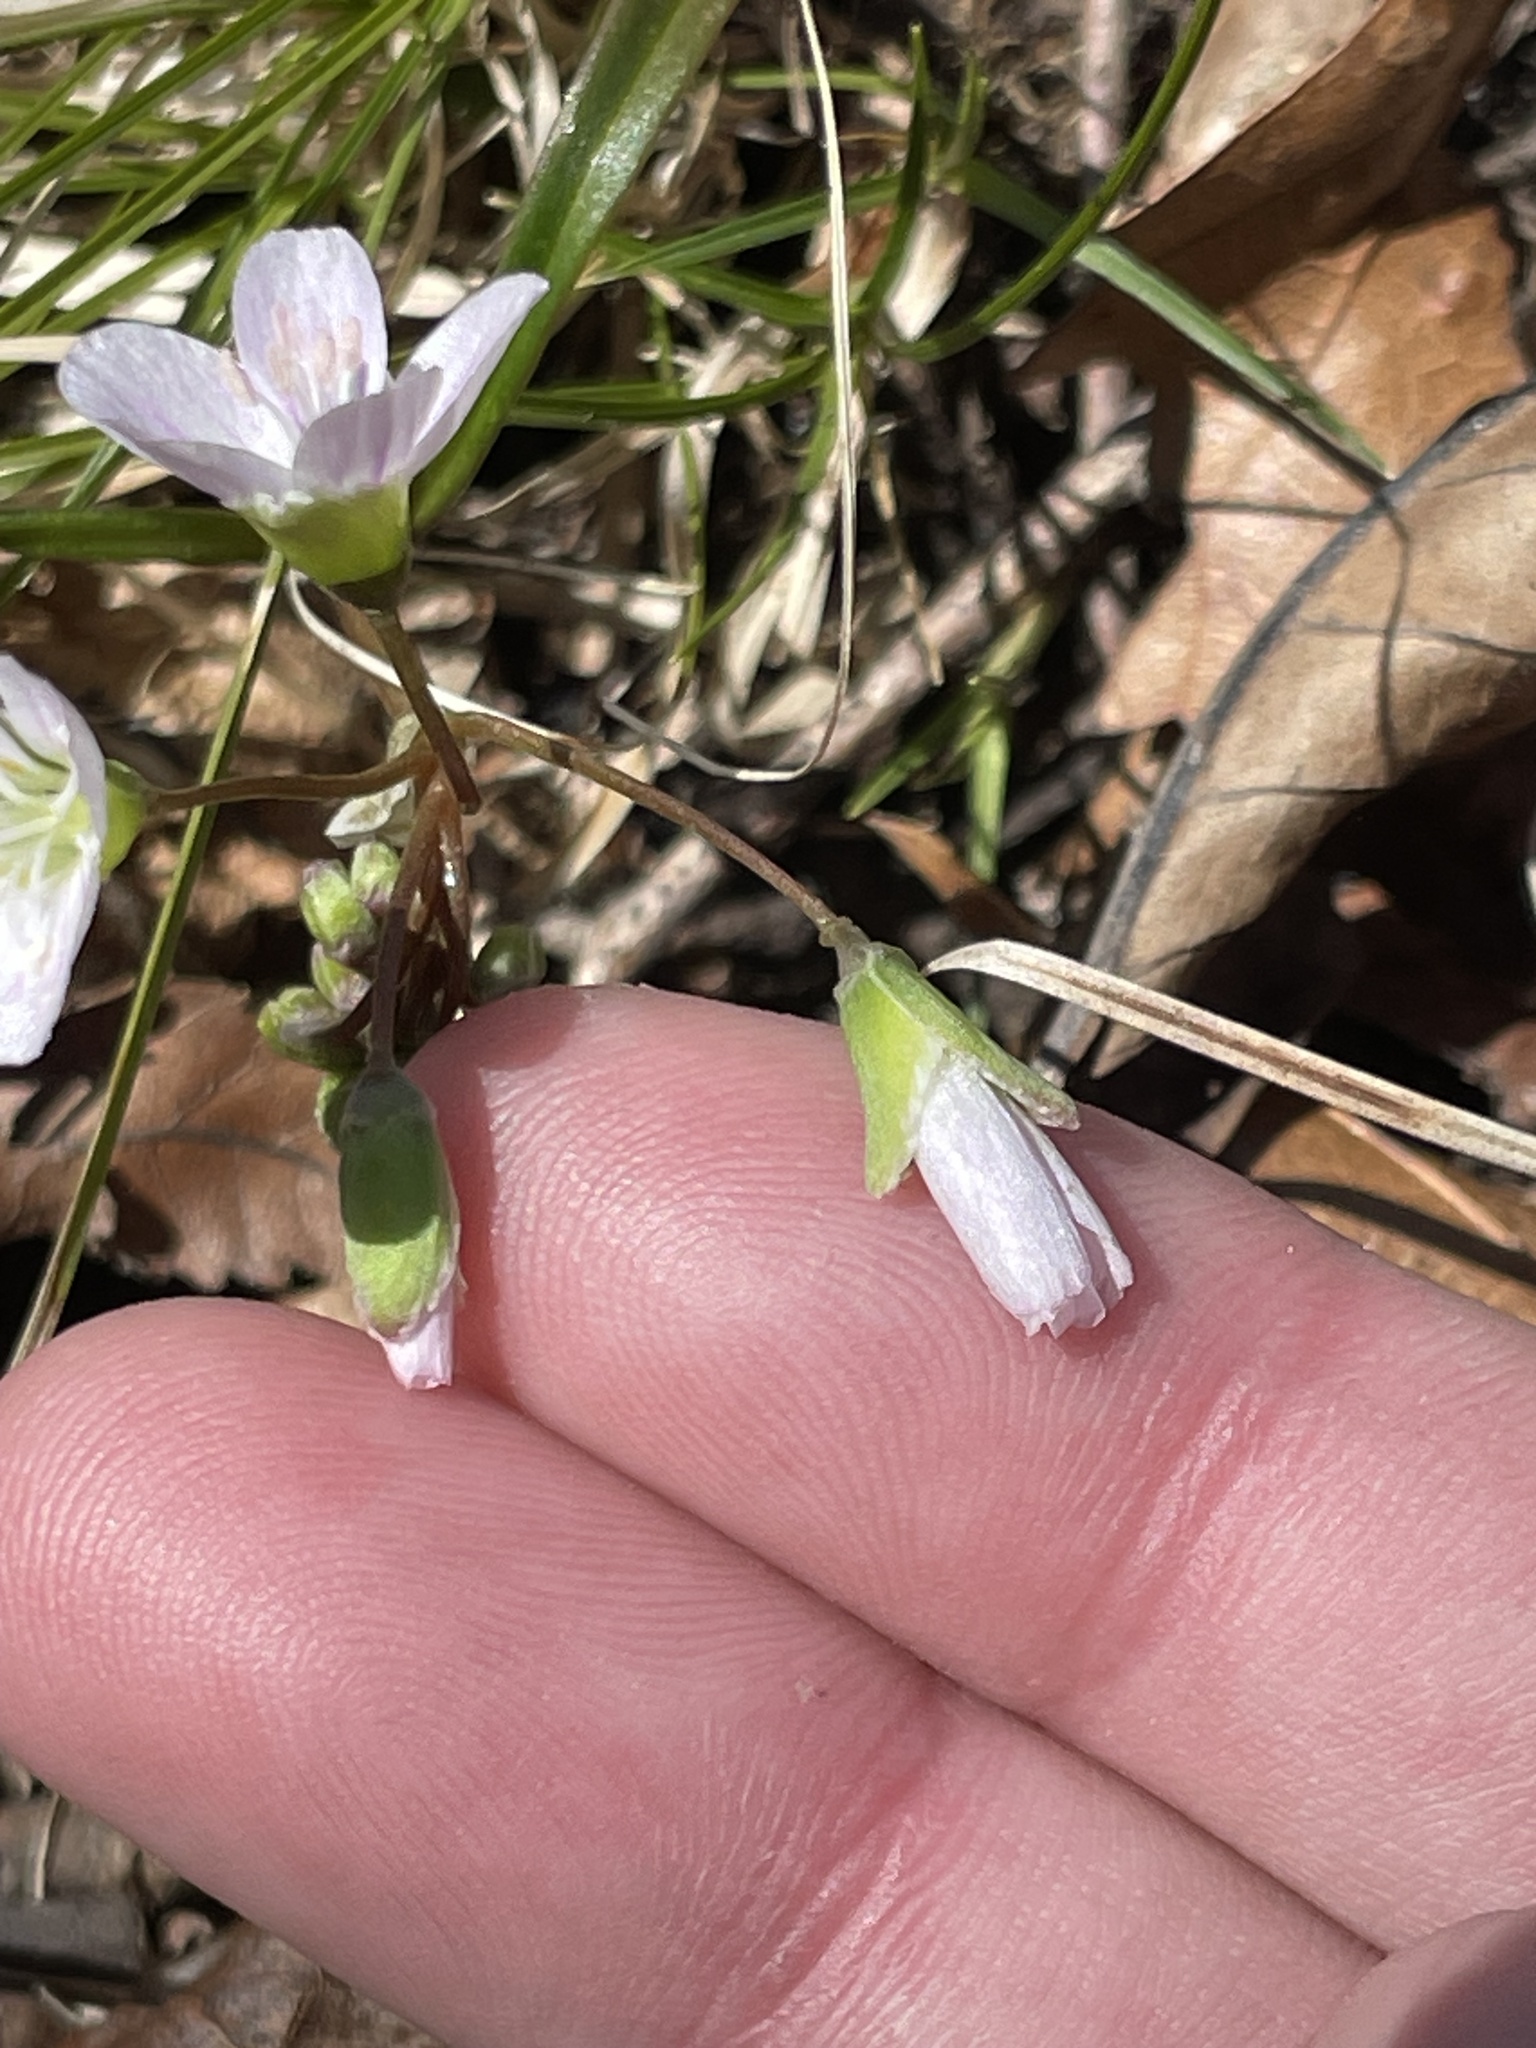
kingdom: Plantae
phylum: Tracheophyta
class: Magnoliopsida
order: Caryophyllales
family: Montiaceae
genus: Claytonia
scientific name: Claytonia virginica
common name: Virginia springbeauty
